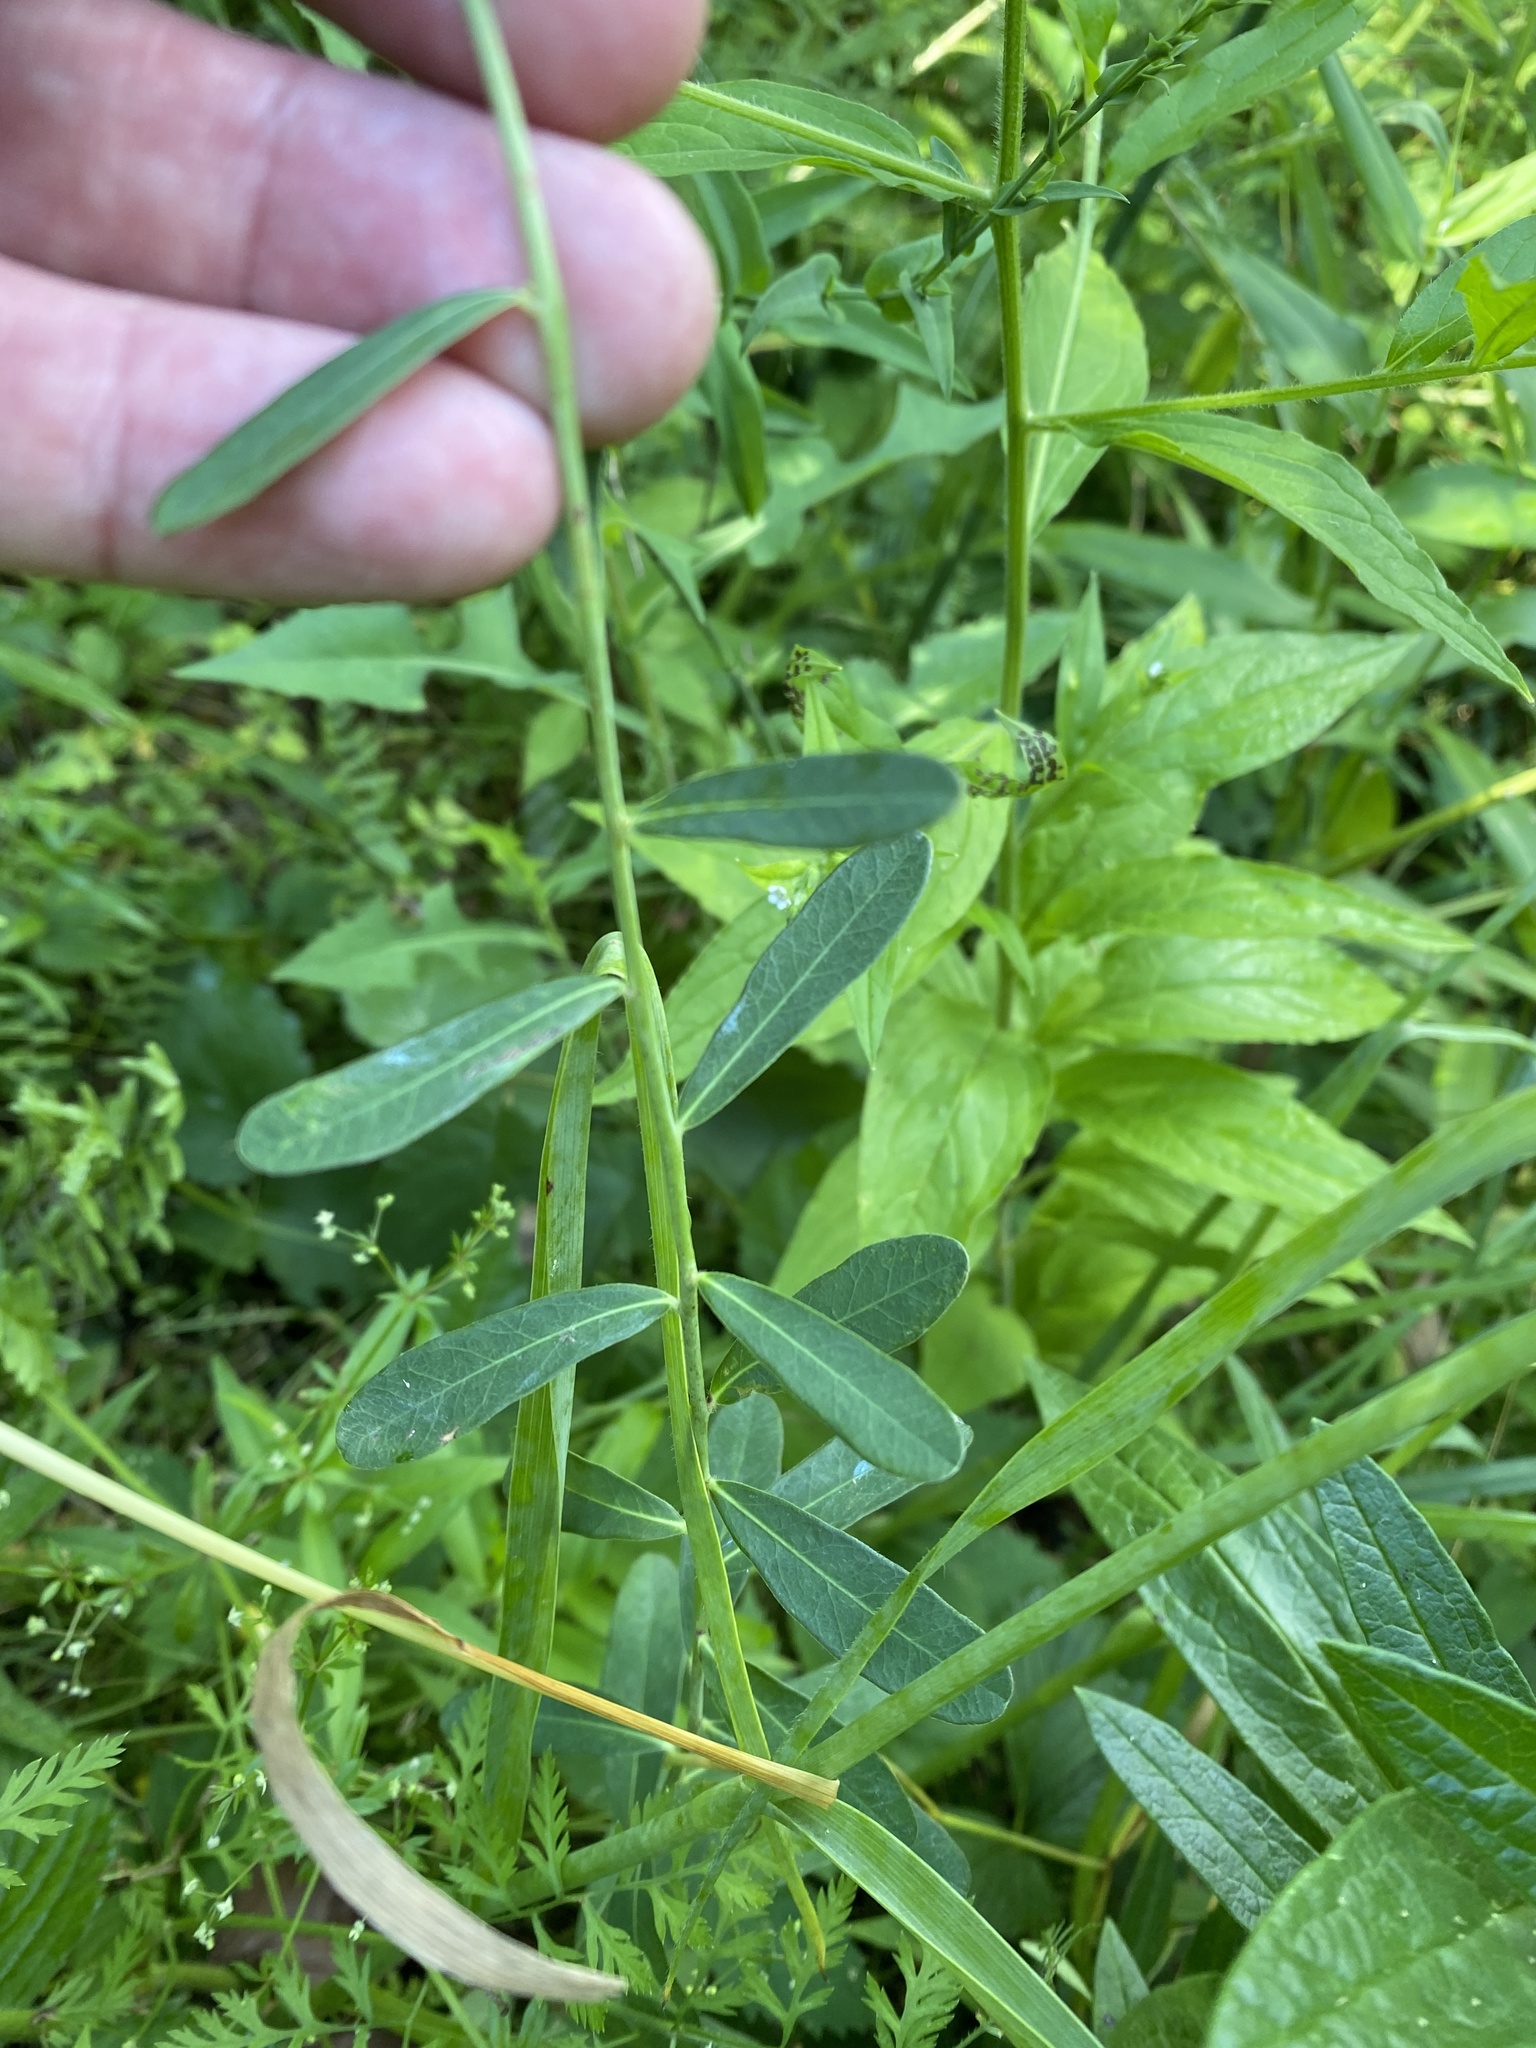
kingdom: Plantae
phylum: Tracheophyta
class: Magnoliopsida
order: Malpighiales
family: Euphorbiaceae
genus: Euphorbia
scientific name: Euphorbia corollata
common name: Flowering spurge
